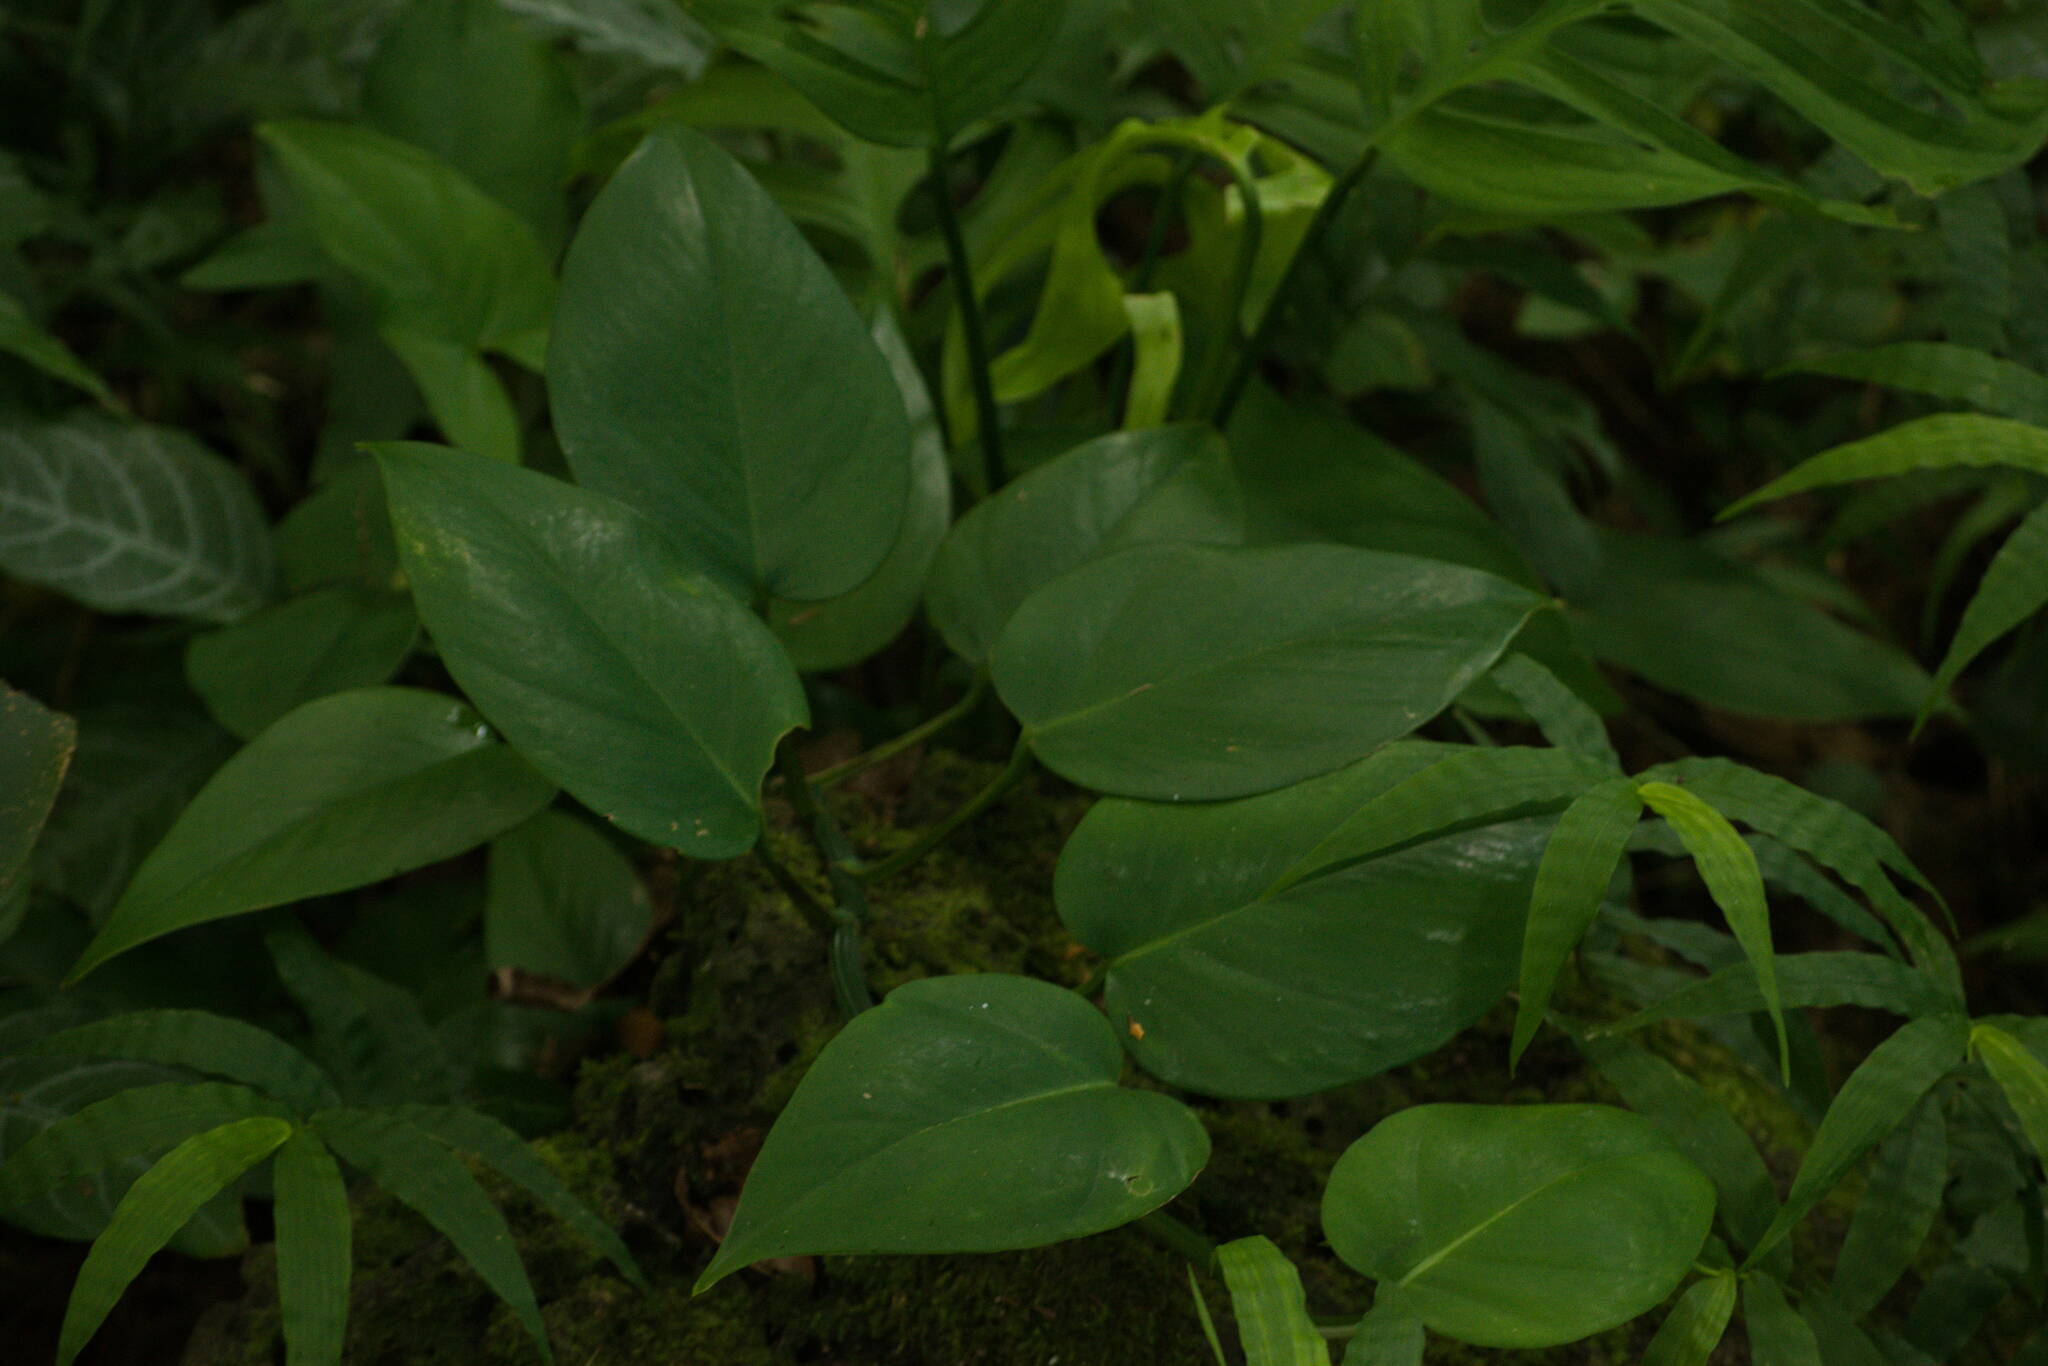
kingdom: Plantae
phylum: Tracheophyta
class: Liliopsida
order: Alismatales
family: Araceae
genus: Epipremnum
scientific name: Epipremnum aureum
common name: Golden hunter's-robe
